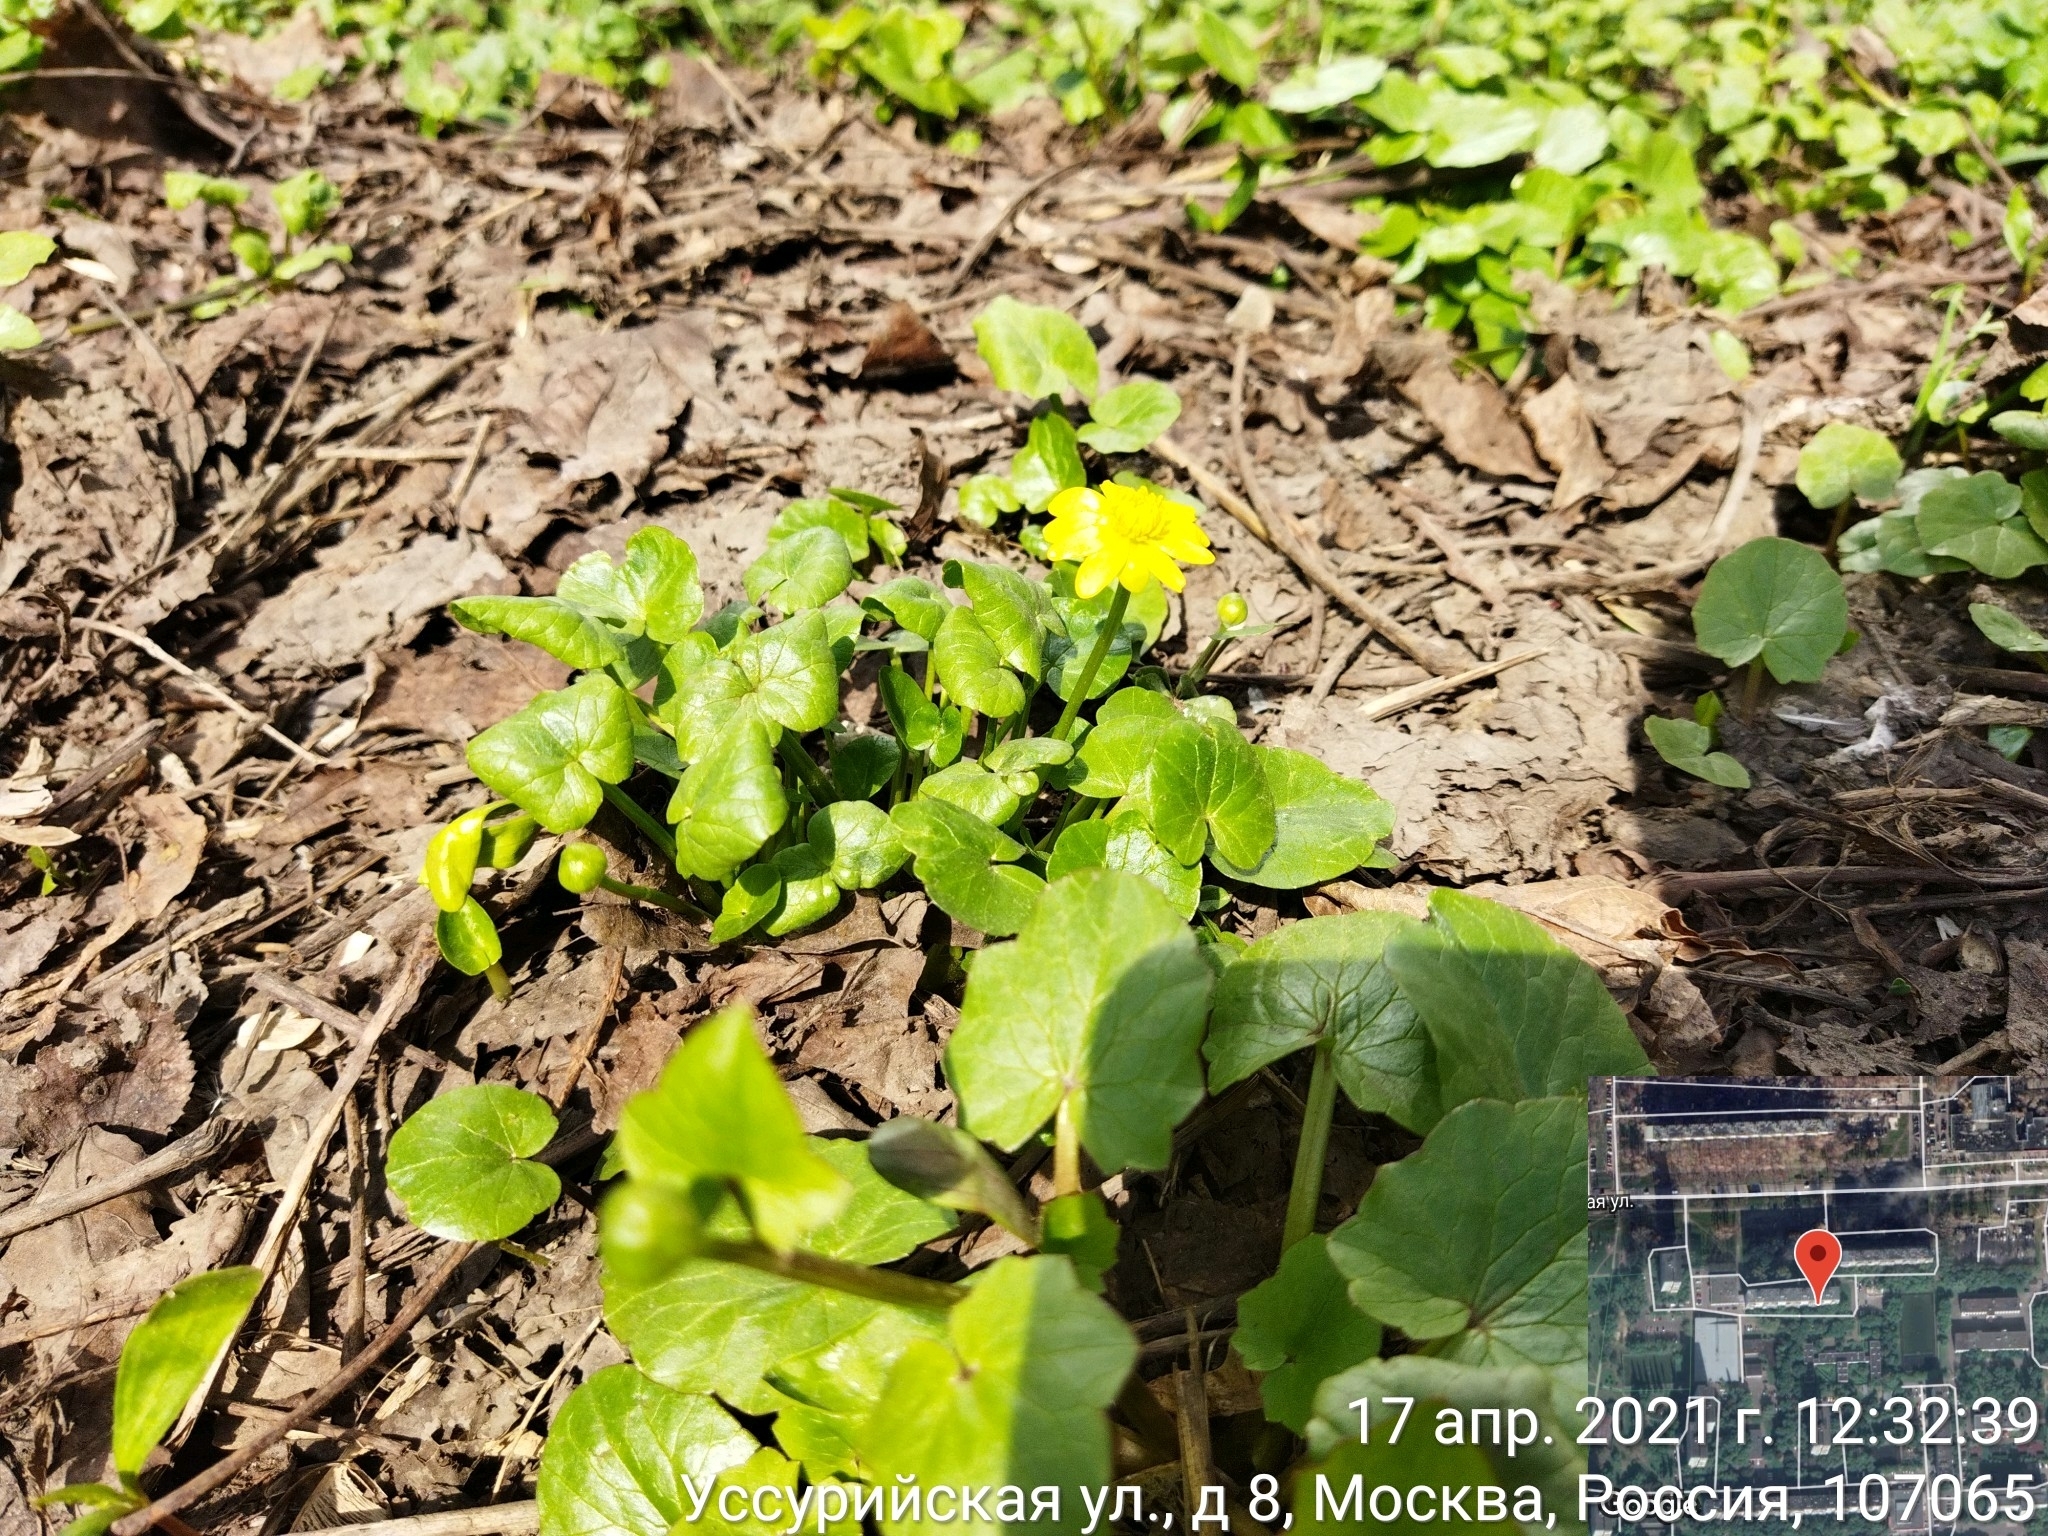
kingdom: Plantae
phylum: Tracheophyta
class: Magnoliopsida
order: Ranunculales
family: Ranunculaceae
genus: Ficaria
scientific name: Ficaria verna
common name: Lesser celandine
